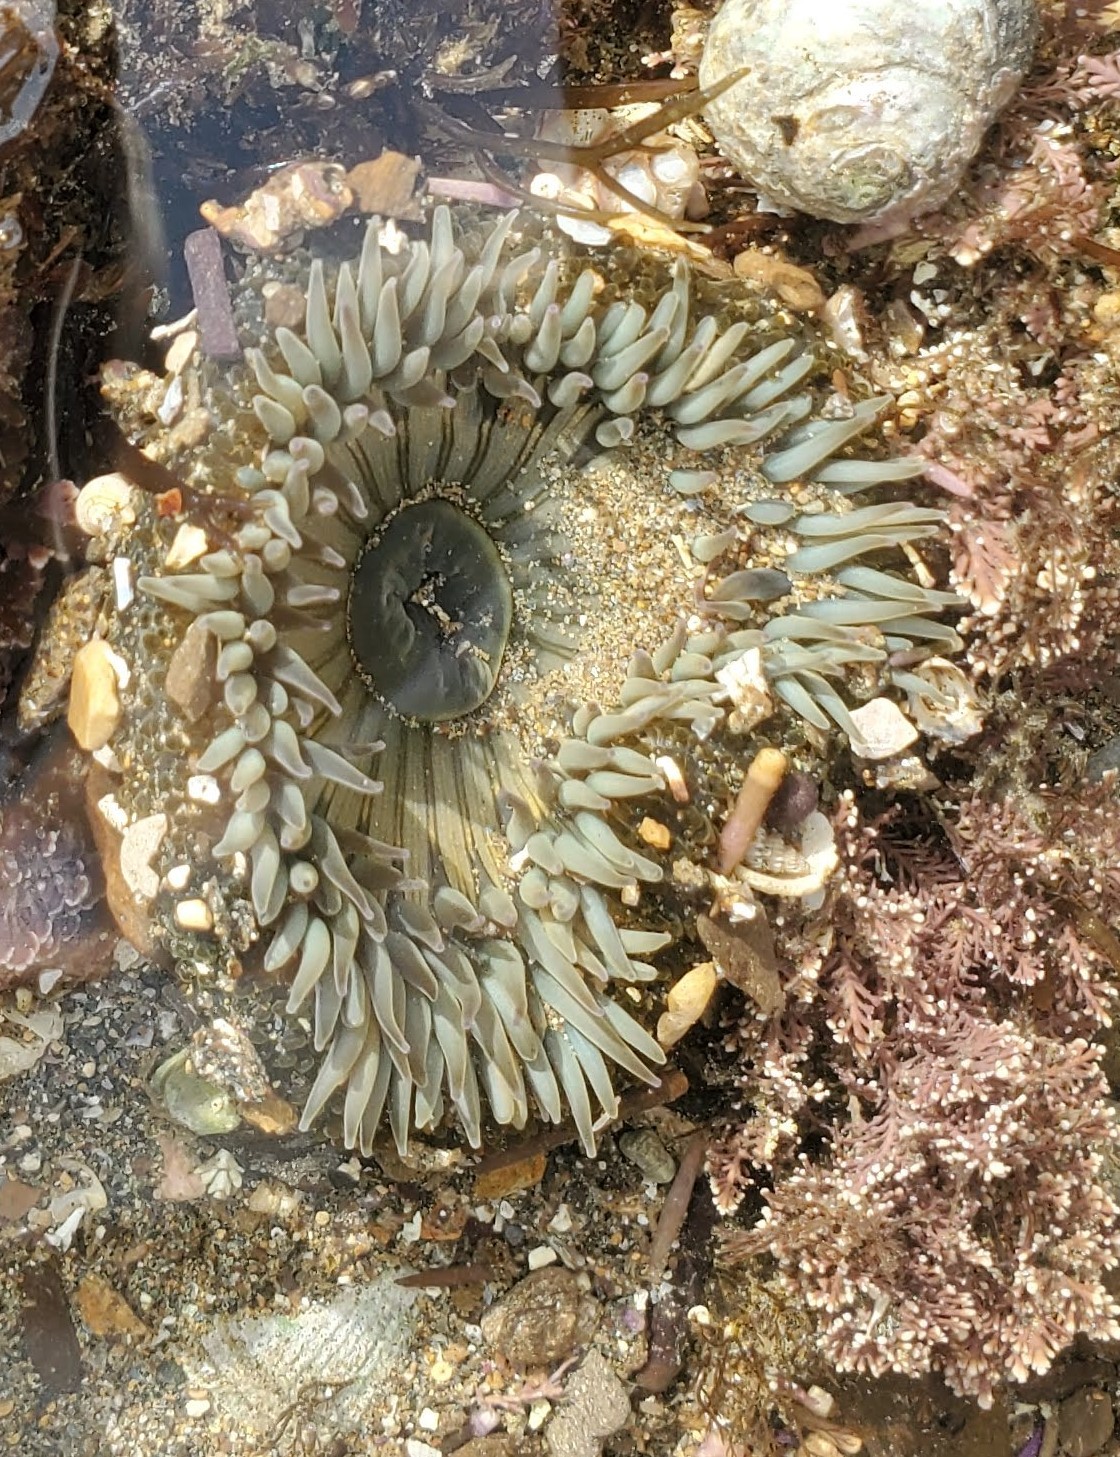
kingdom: Animalia
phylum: Cnidaria
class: Anthozoa
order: Actiniaria
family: Actiniidae
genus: Anthopleura
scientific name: Anthopleura sola
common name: Sun anemone
